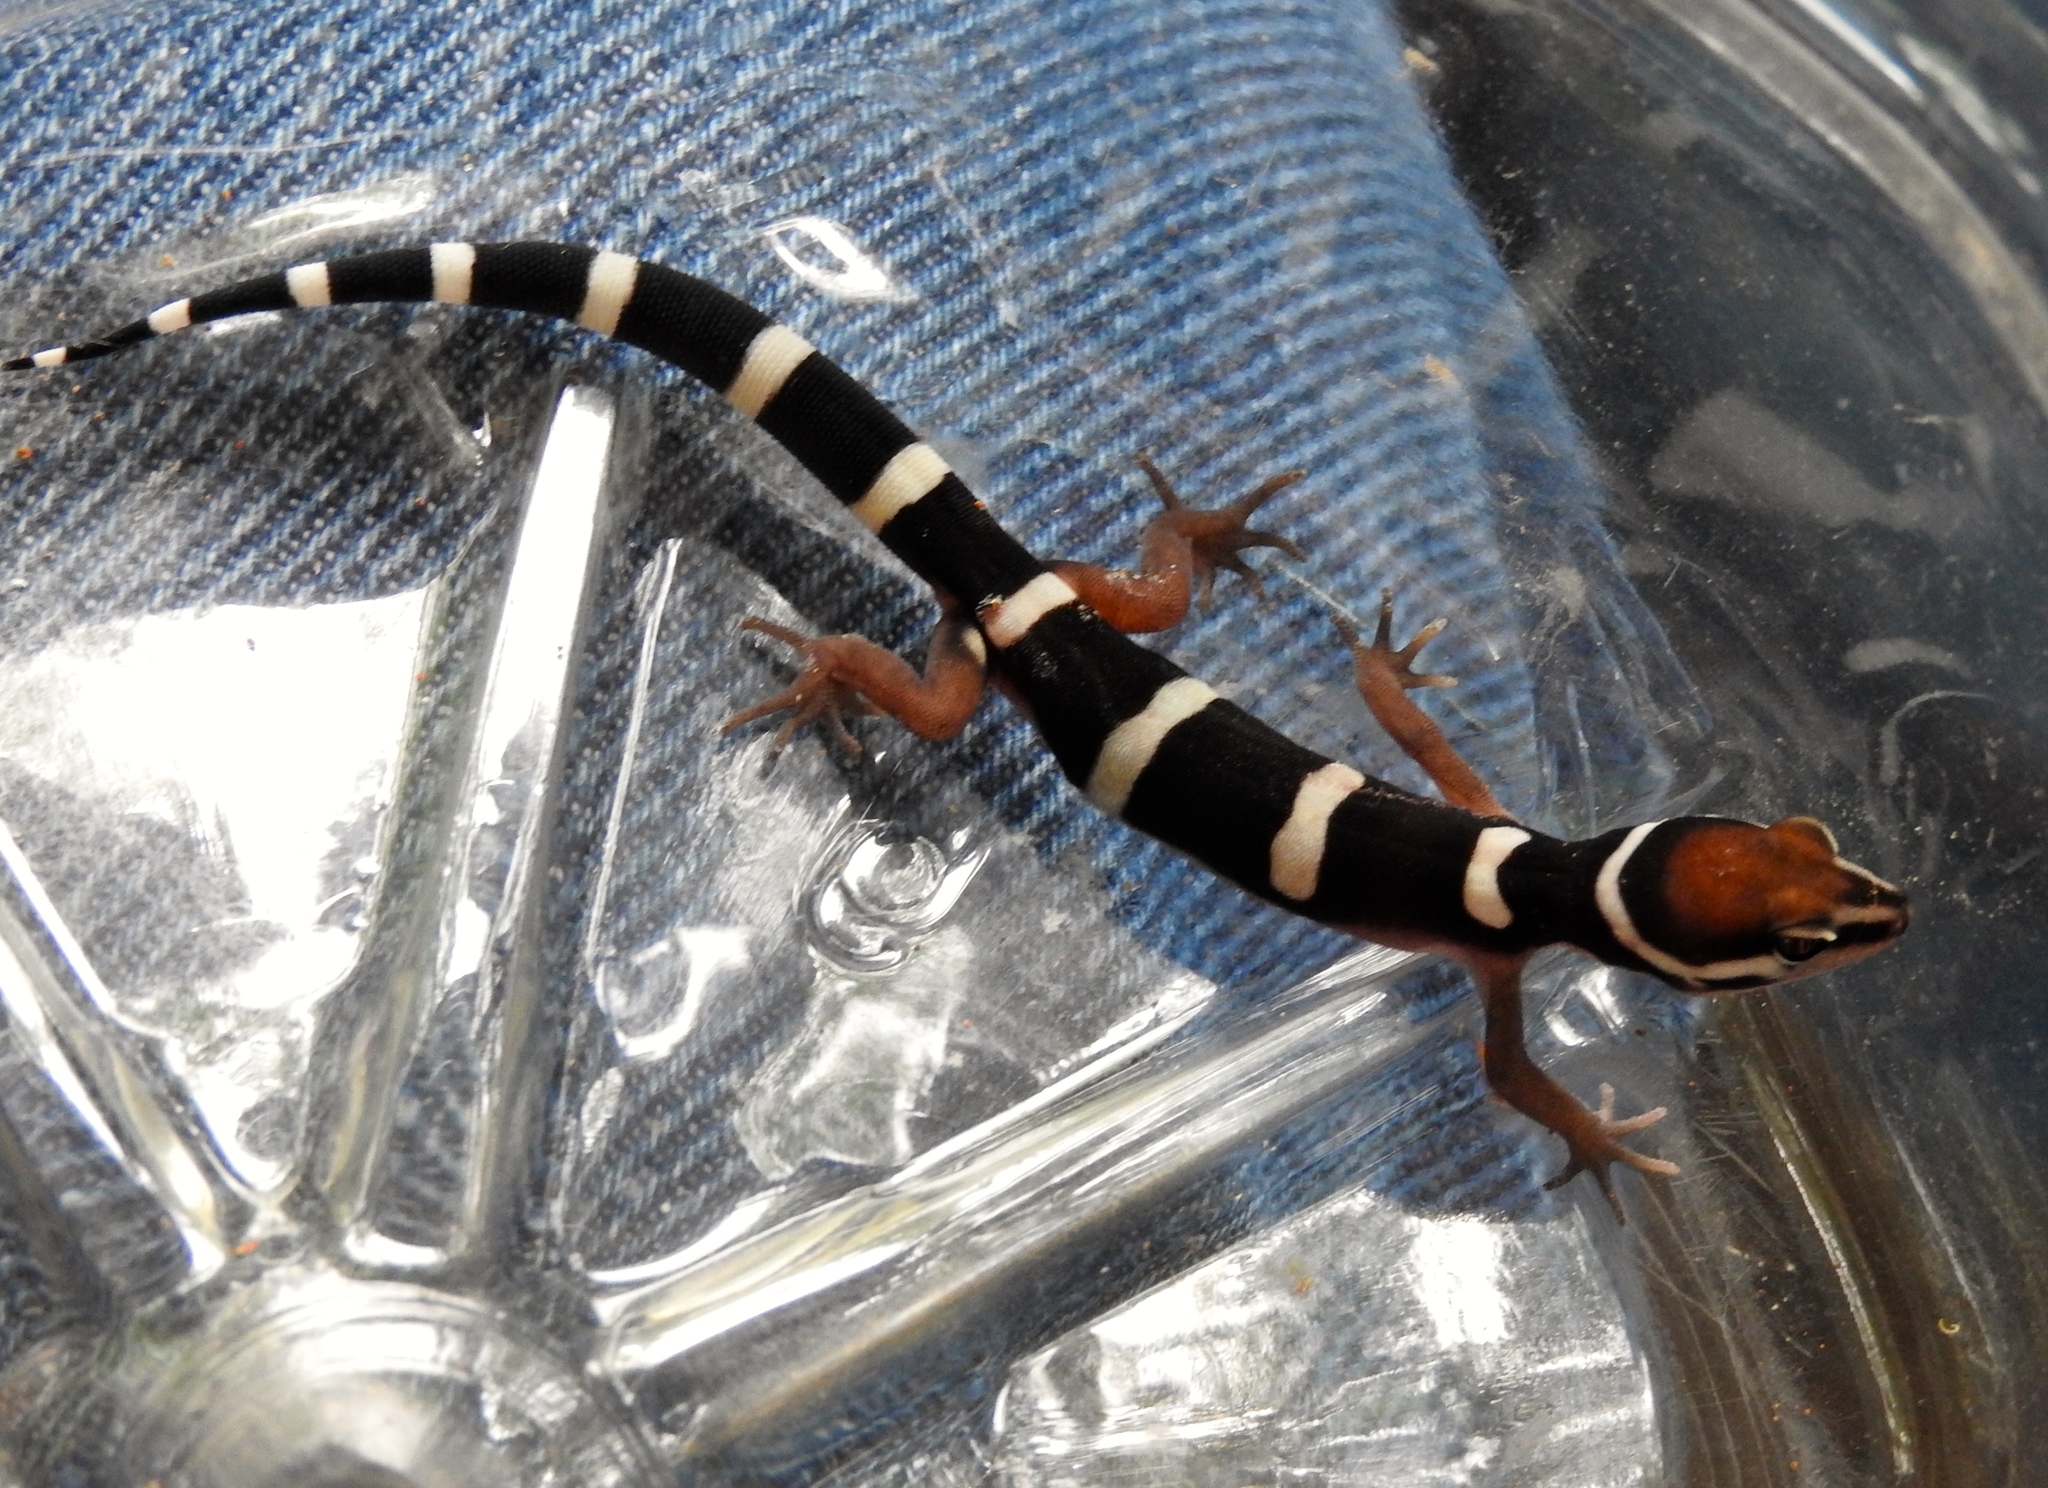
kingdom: Animalia
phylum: Chordata
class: Squamata
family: Eublepharidae
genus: Coleonyx
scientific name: Coleonyx fasciatus
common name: Black banded gecko
